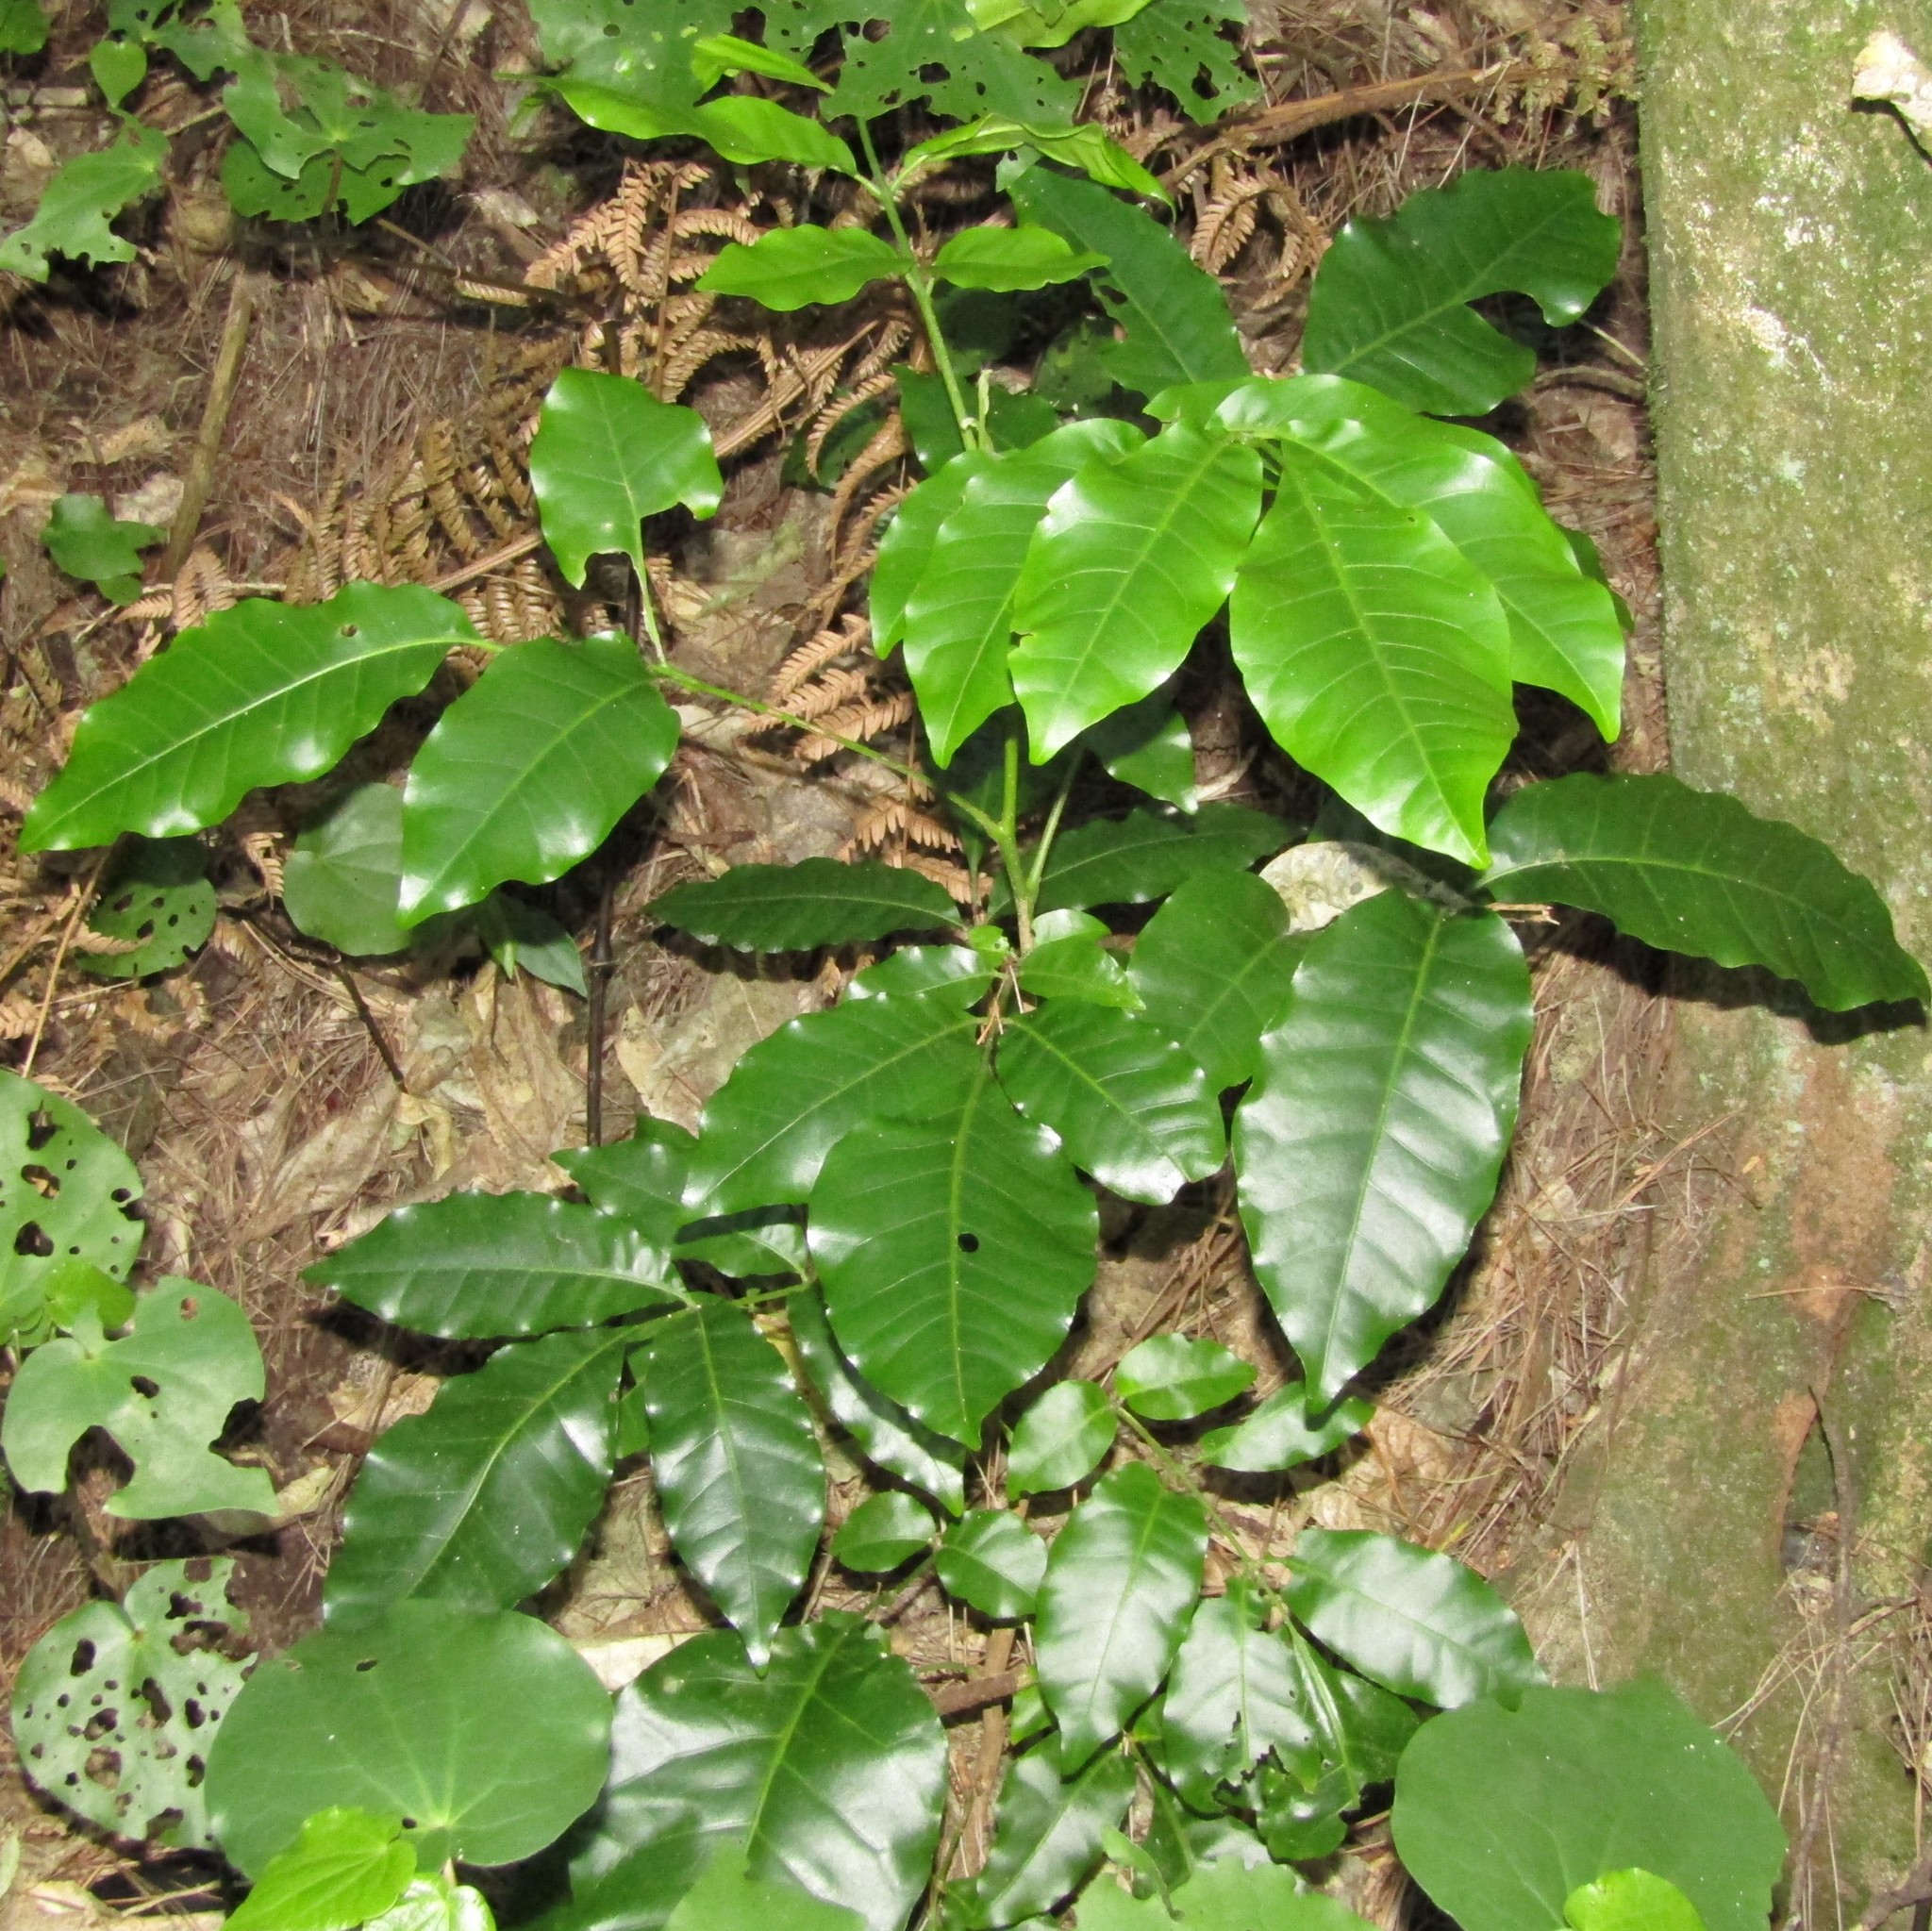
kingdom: Plantae
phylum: Tracheophyta
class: Magnoliopsida
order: Sapindales
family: Meliaceae
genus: Didymocheton
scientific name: Didymocheton spectabilis
